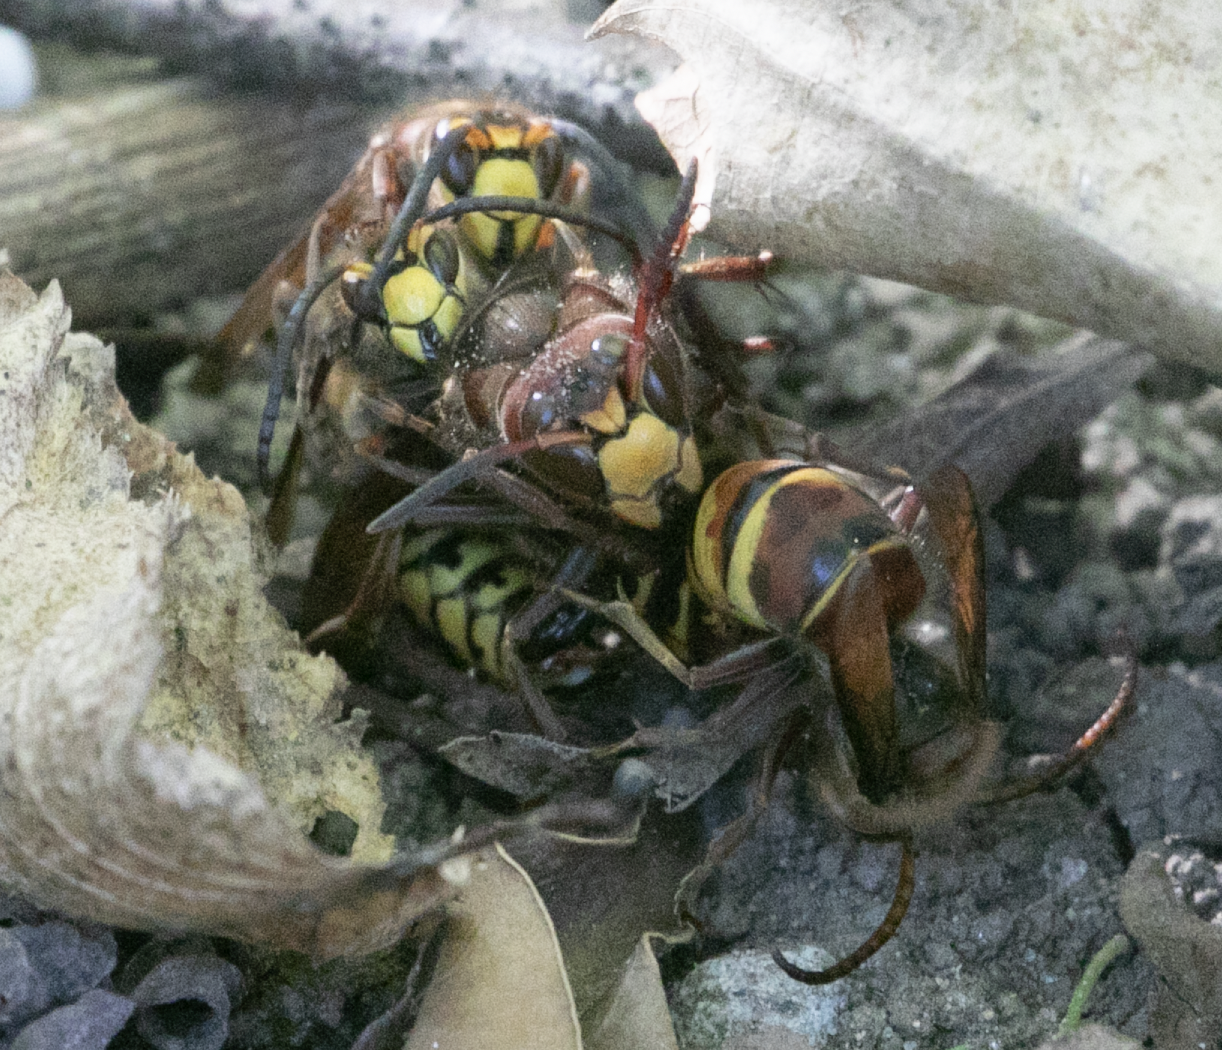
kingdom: Animalia
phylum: Arthropoda
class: Insecta
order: Hymenoptera
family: Vespidae
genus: Vespa
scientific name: Vespa crabro
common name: Hornet
